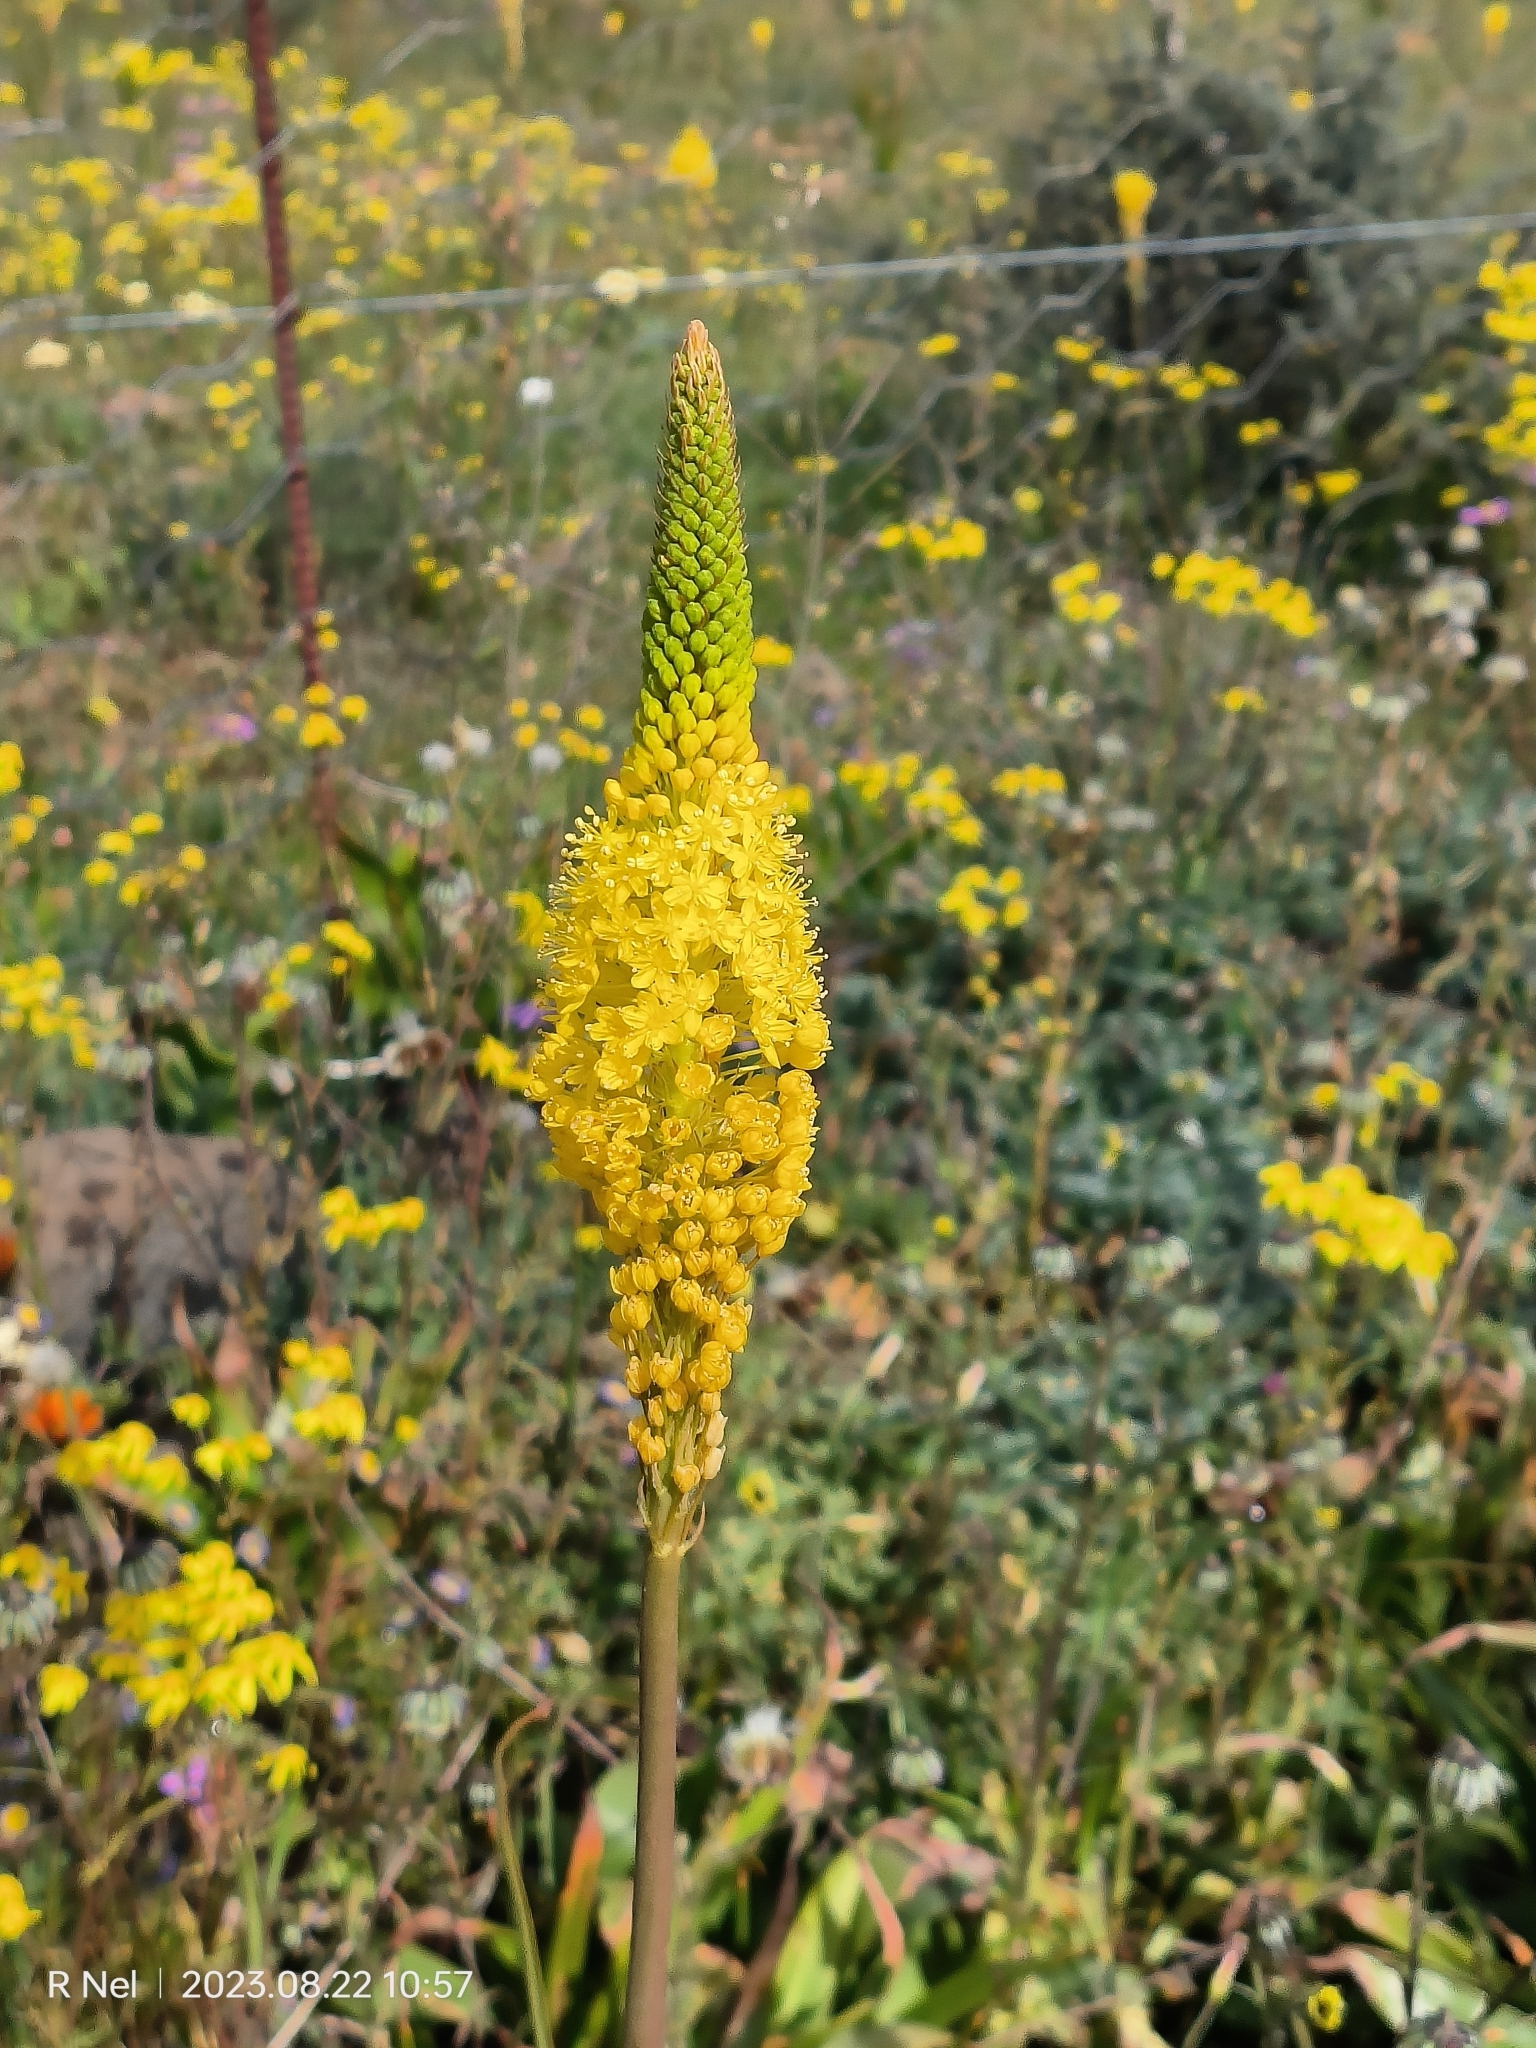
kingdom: Plantae
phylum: Tracheophyta
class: Liliopsida
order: Asparagales
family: Asphodelaceae
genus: Bulbinella
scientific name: Bulbinella nutans
